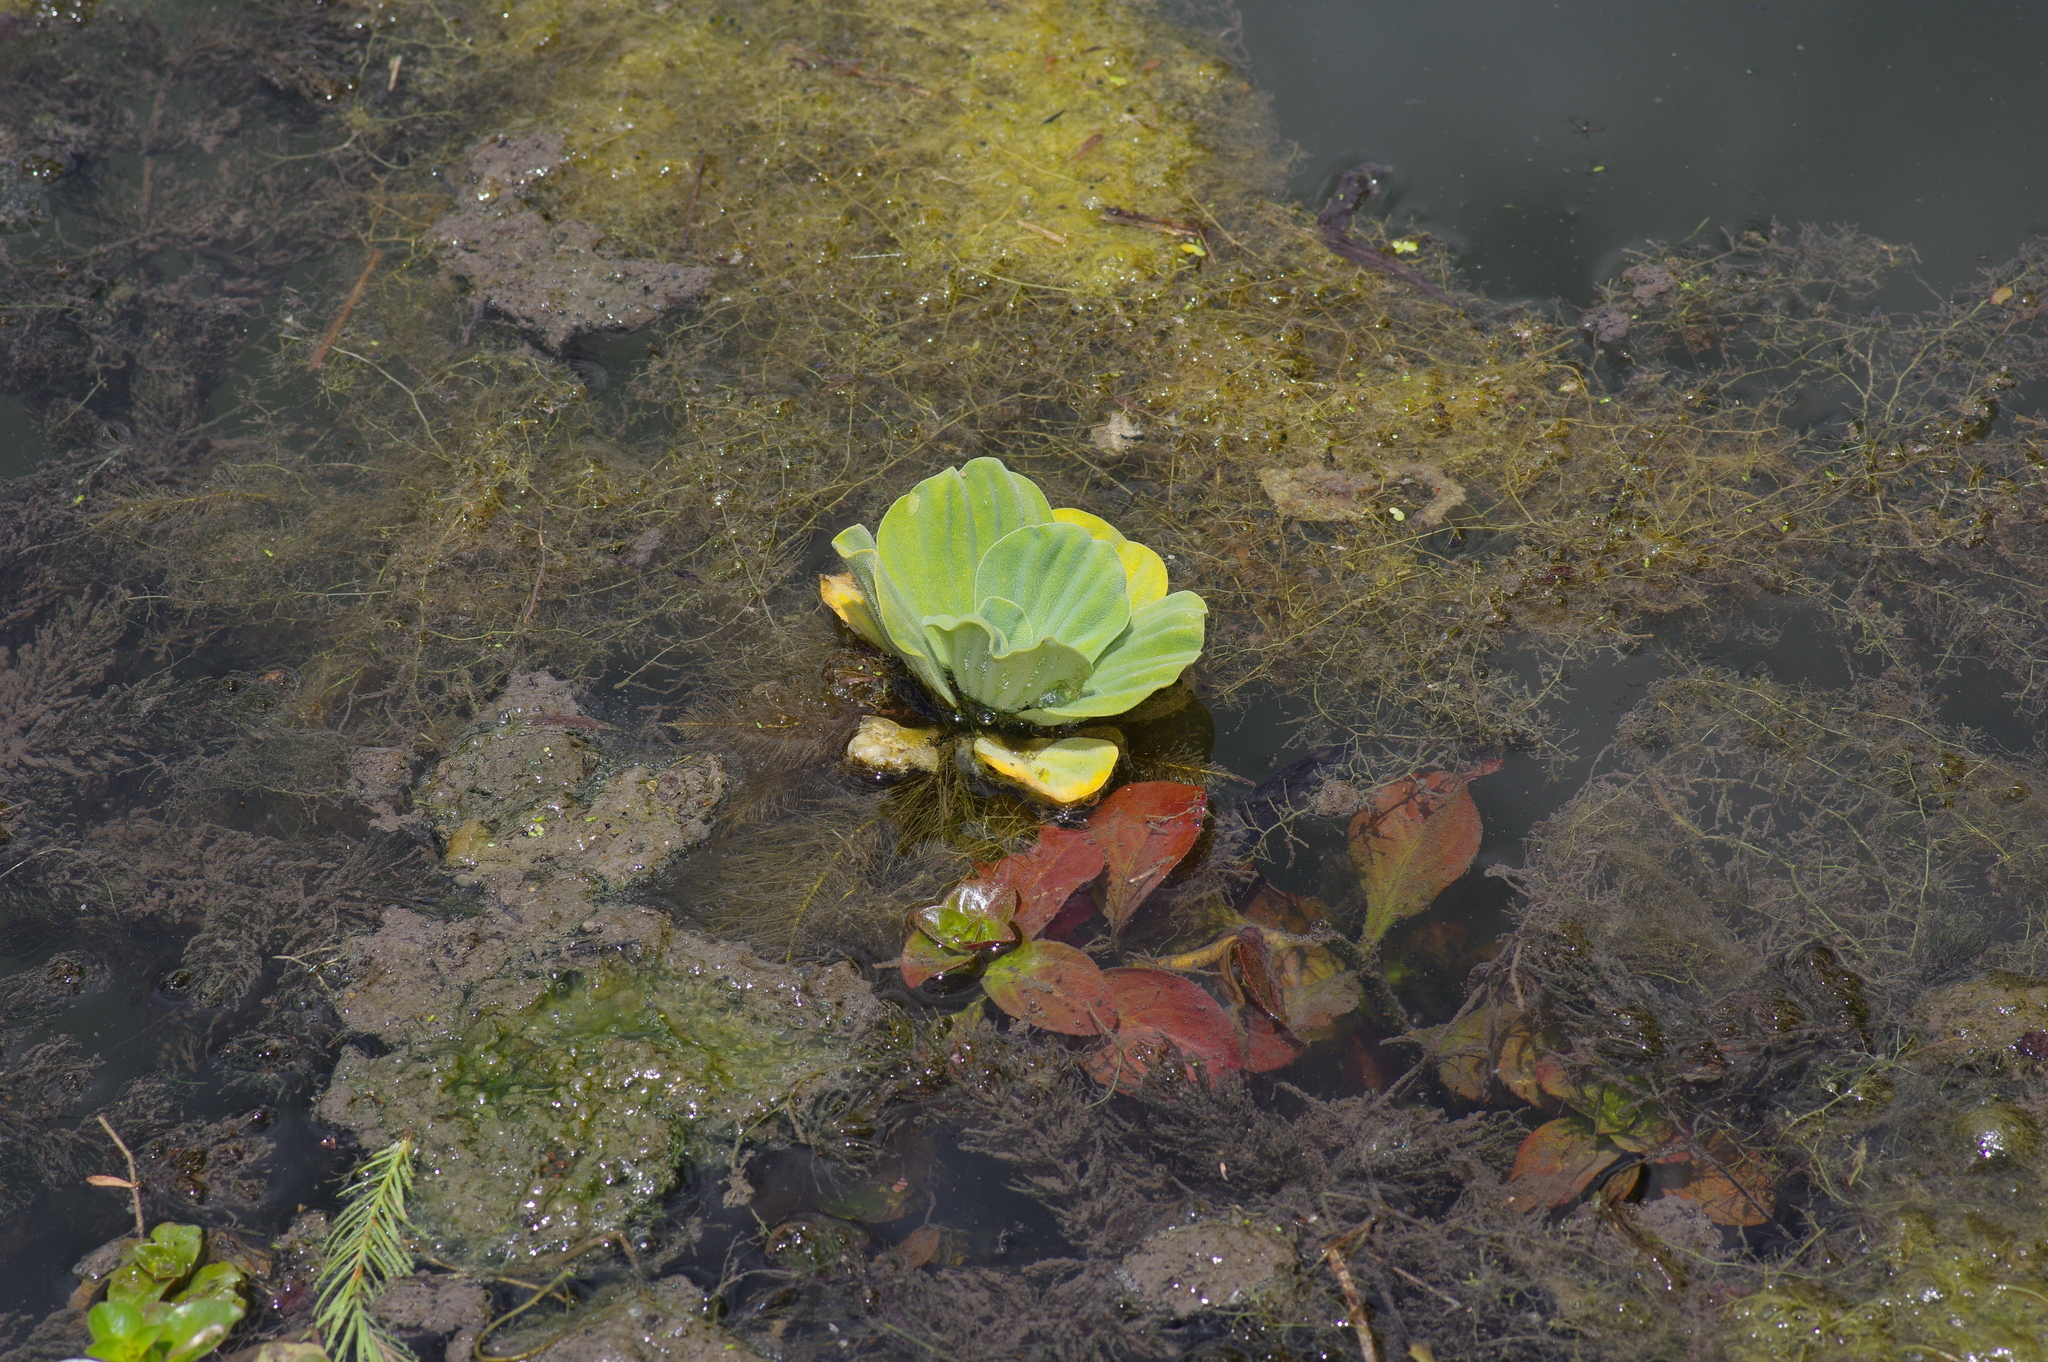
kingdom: Plantae
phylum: Tracheophyta
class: Liliopsida
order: Alismatales
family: Araceae
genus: Pistia
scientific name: Pistia stratiotes
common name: Water lettuce
